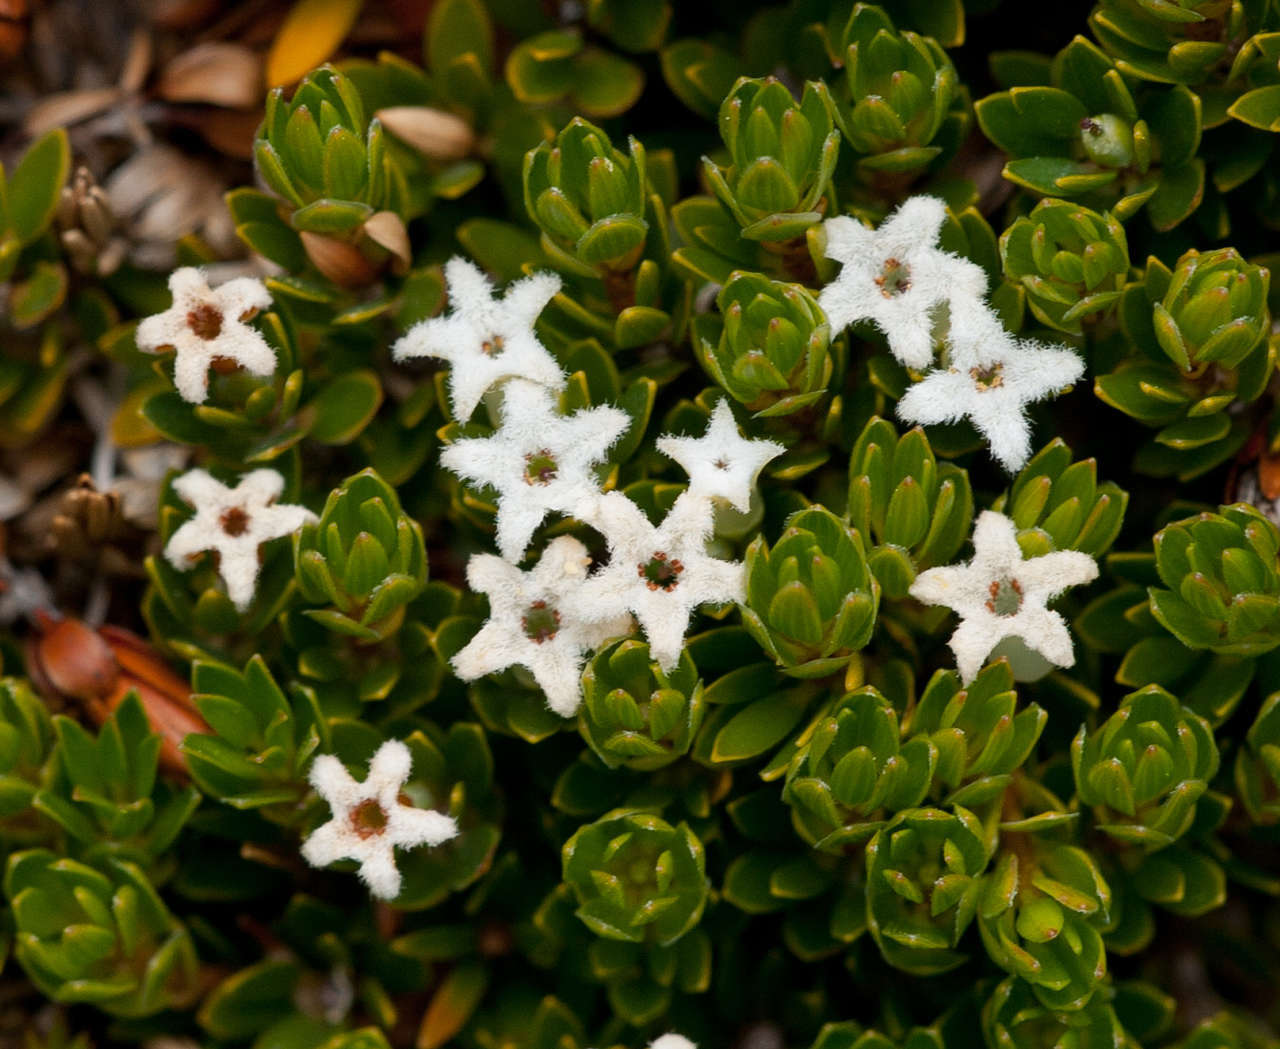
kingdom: Plantae
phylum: Tracheophyta
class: Magnoliopsida
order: Ericales
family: Ericaceae
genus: Pentachondra
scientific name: Pentachondra pumila
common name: Carpet-heath
